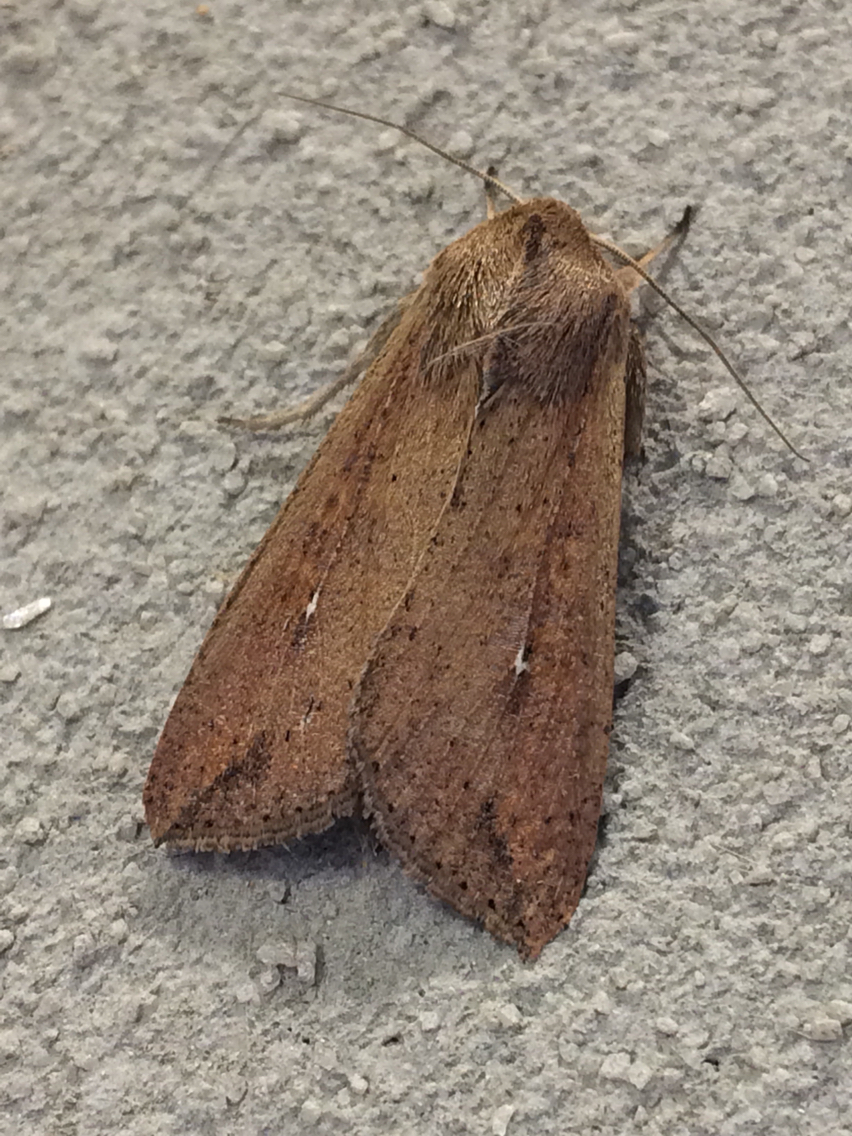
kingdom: Animalia
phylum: Arthropoda
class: Insecta
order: Lepidoptera
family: Noctuidae
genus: Mythimna
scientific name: Mythimna unipuncta
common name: White-speck
